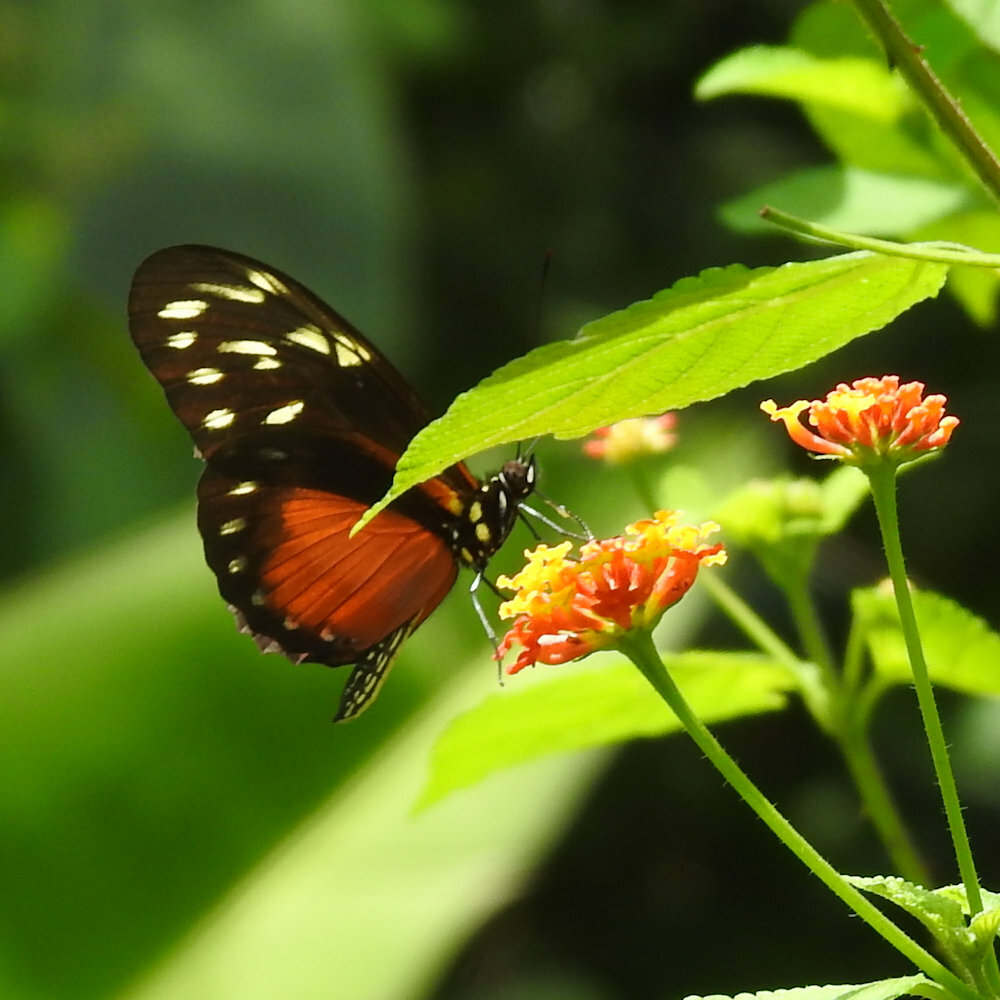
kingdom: Animalia
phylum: Arthropoda
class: Insecta
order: Lepidoptera
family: Nymphalidae
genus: Heliconius
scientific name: Heliconius hecalesia
